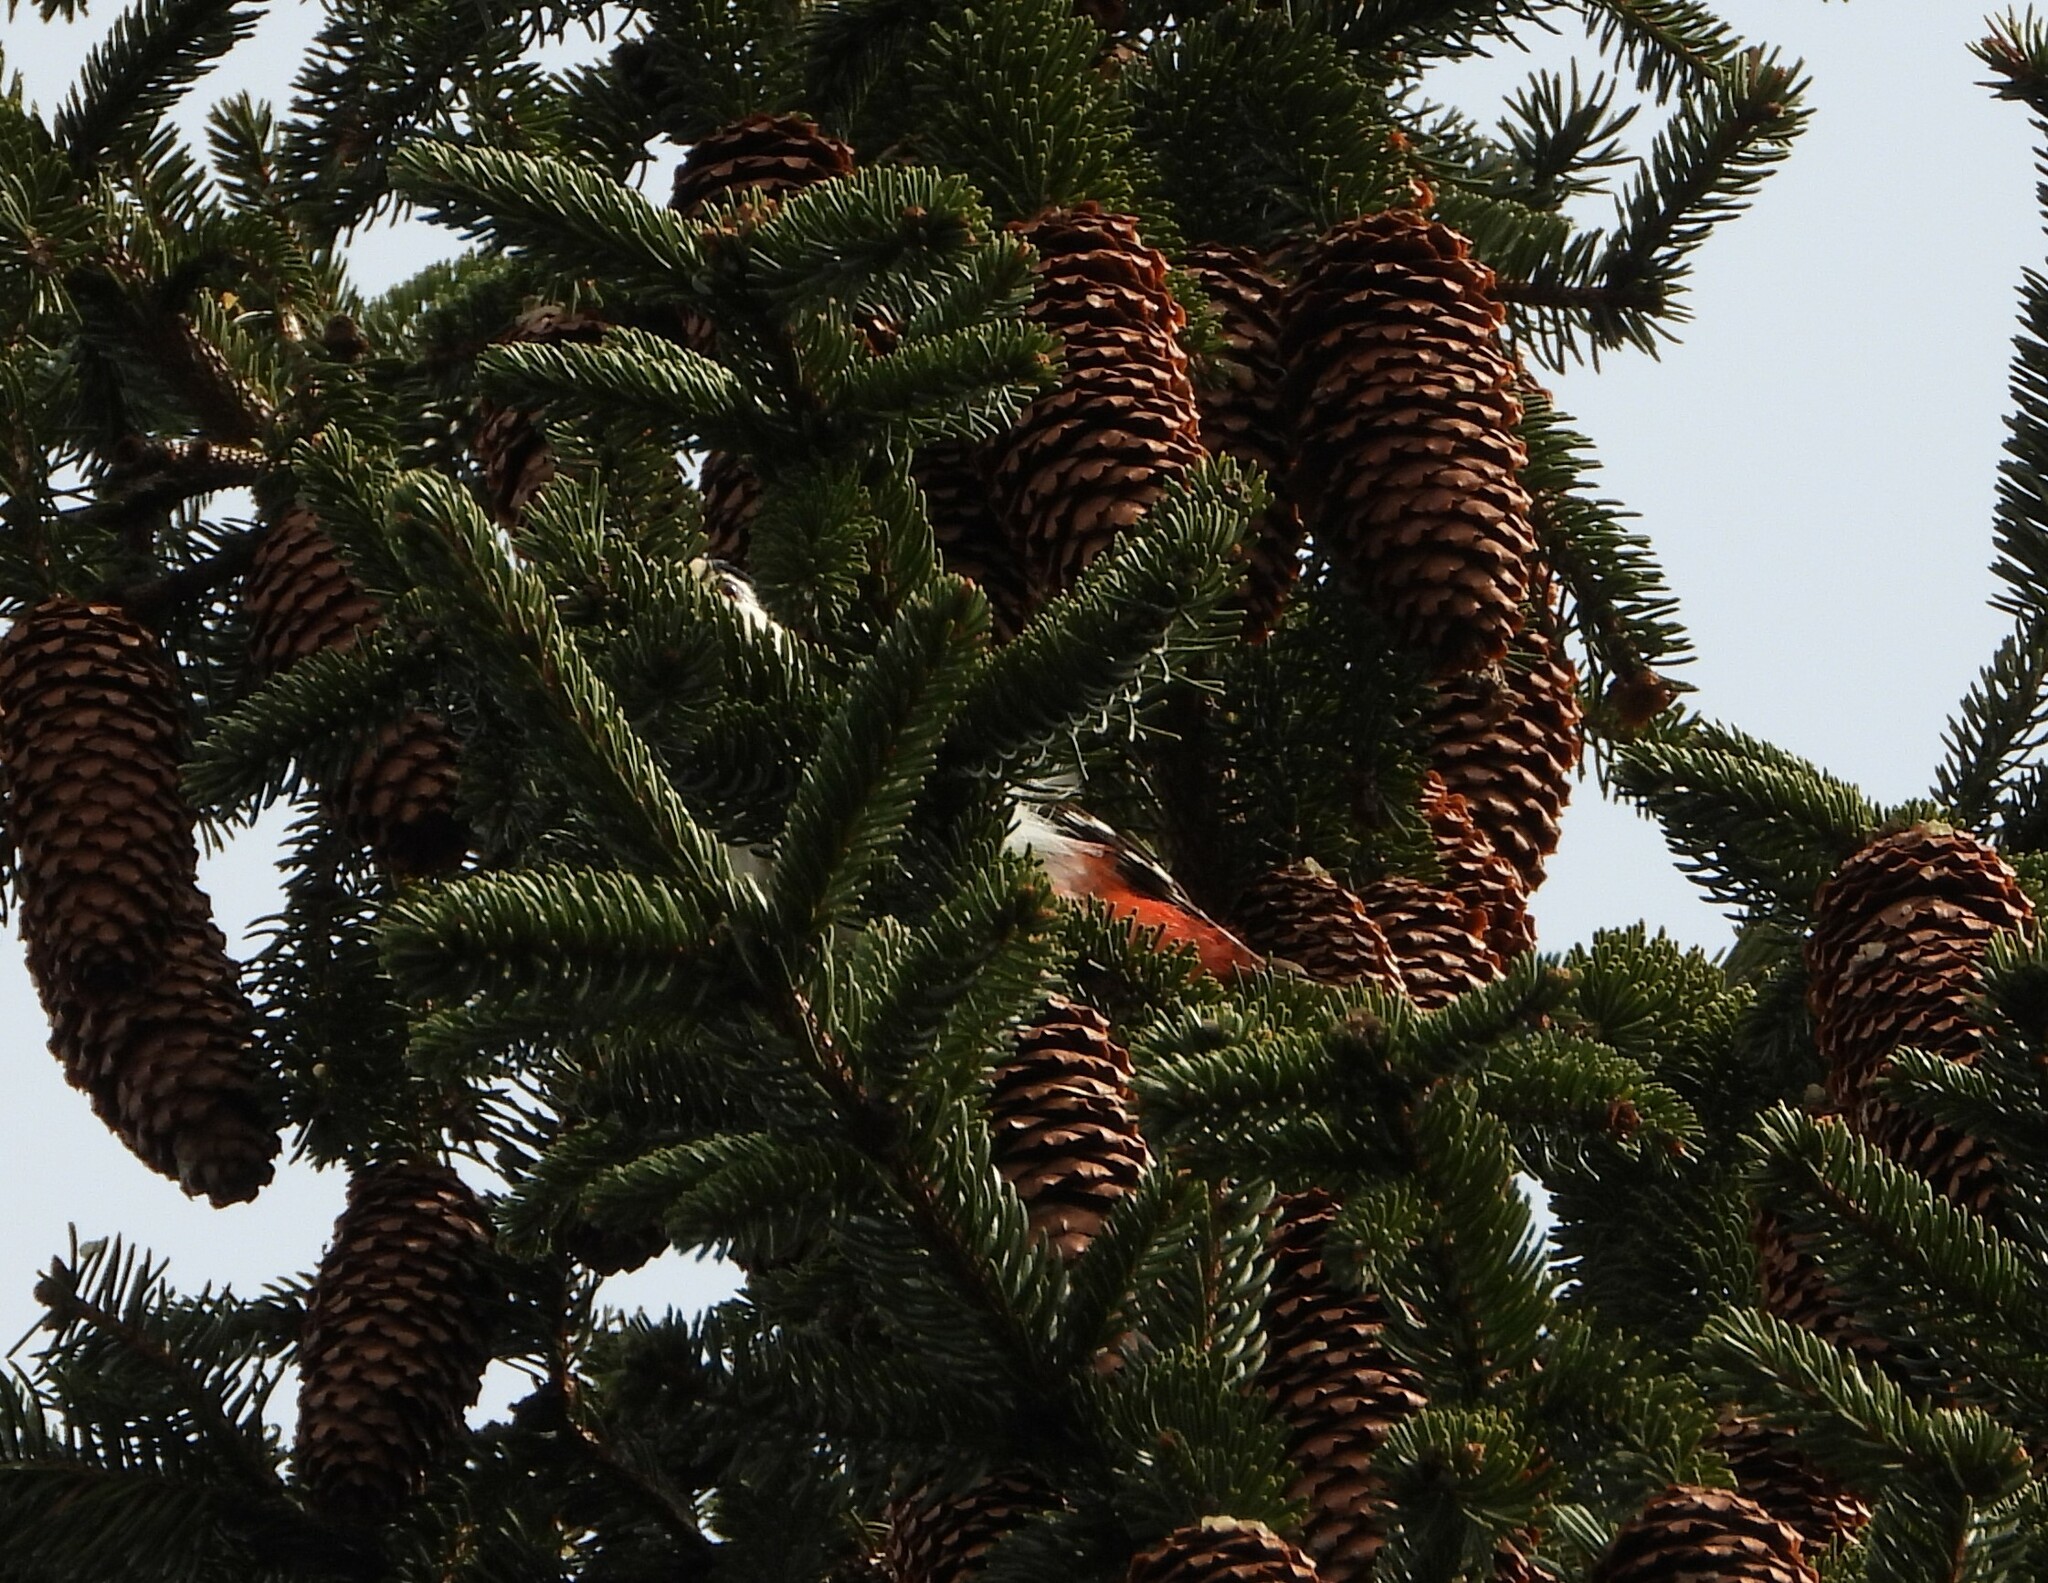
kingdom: Animalia
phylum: Chordata
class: Aves
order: Piciformes
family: Picidae
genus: Dendrocopos
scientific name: Dendrocopos major
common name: Great spotted woodpecker
